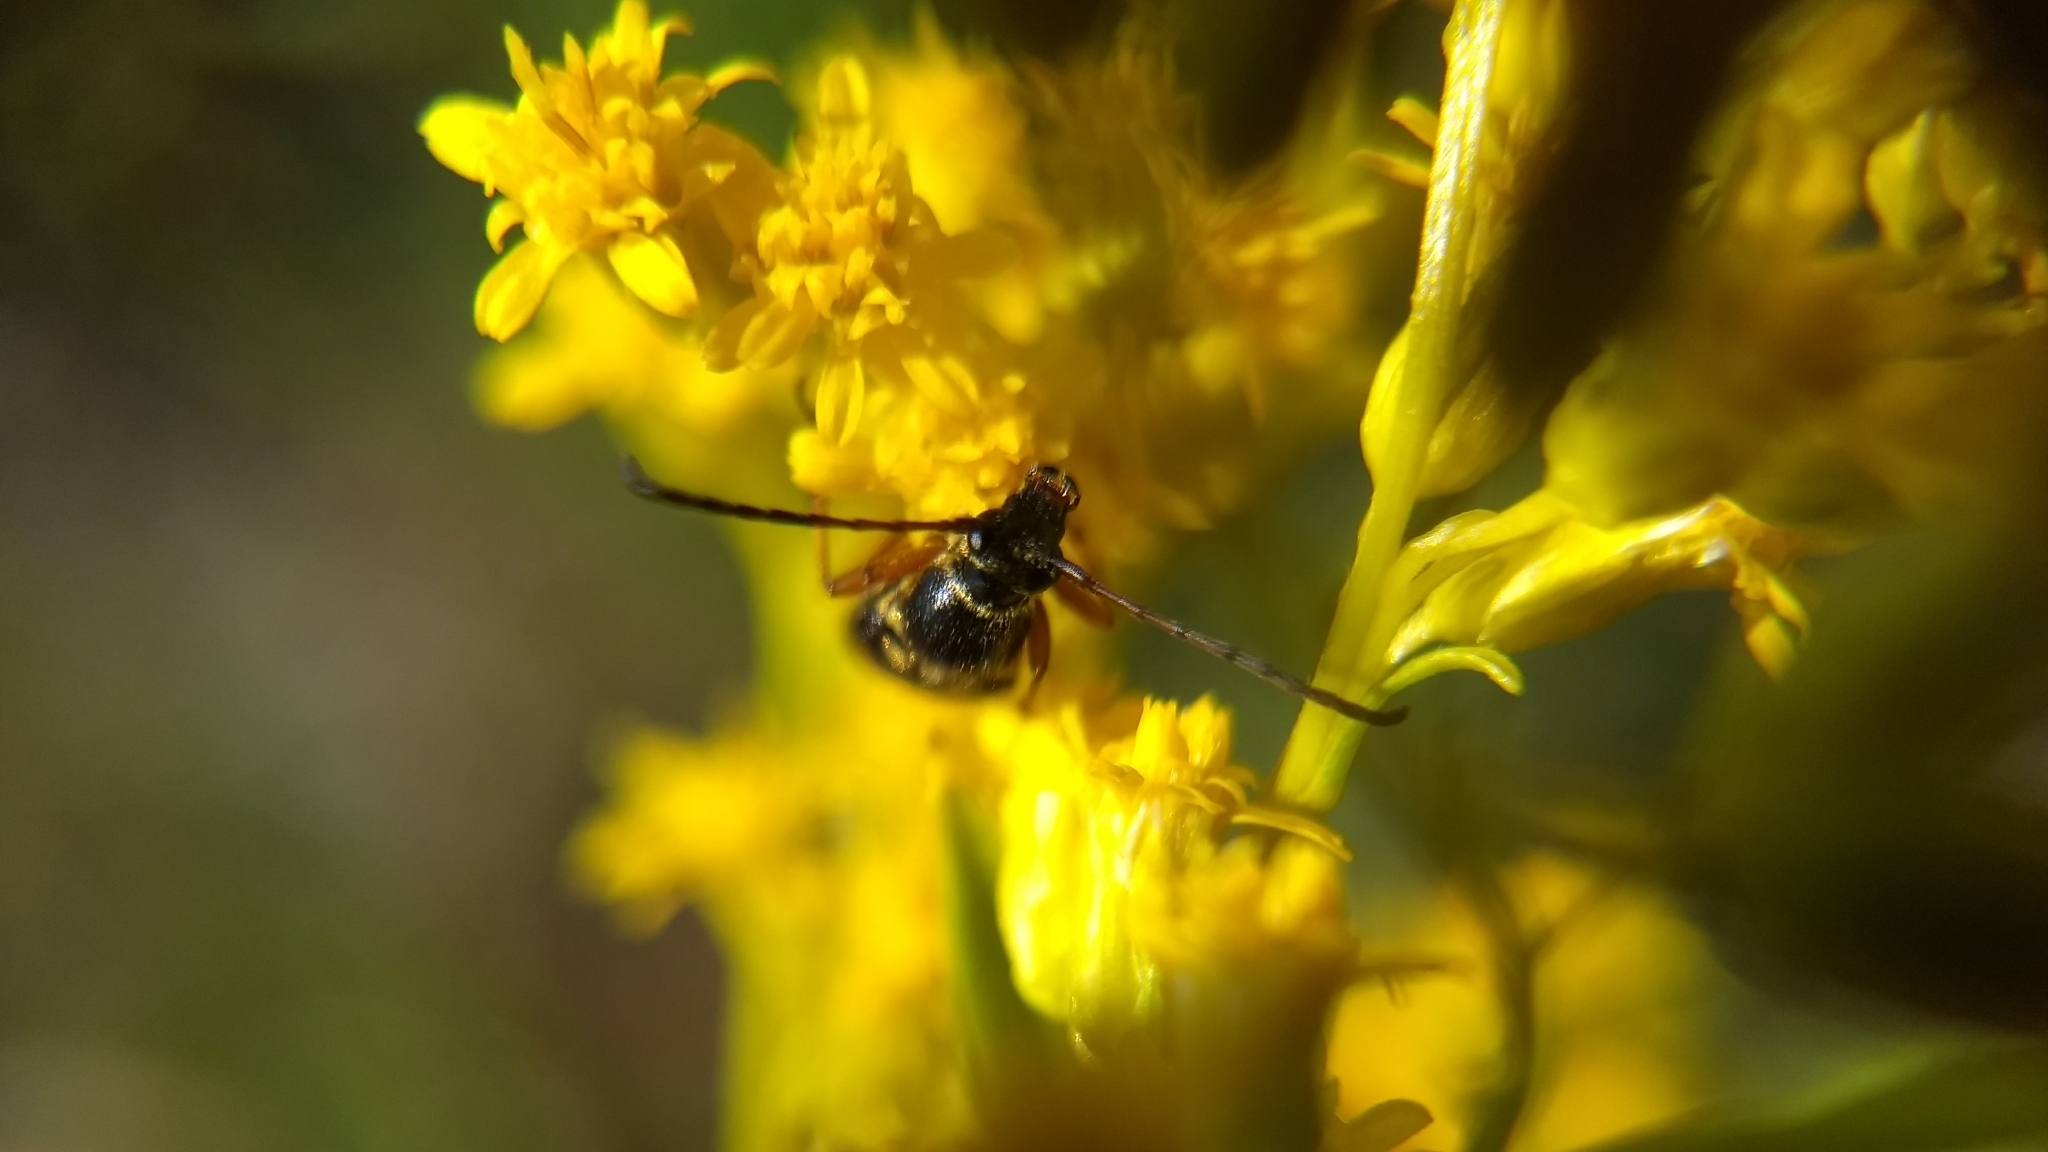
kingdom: Animalia
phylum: Arthropoda
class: Insecta
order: Coleoptera
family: Cerambycidae
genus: Typocerus
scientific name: Typocerus sparsus
